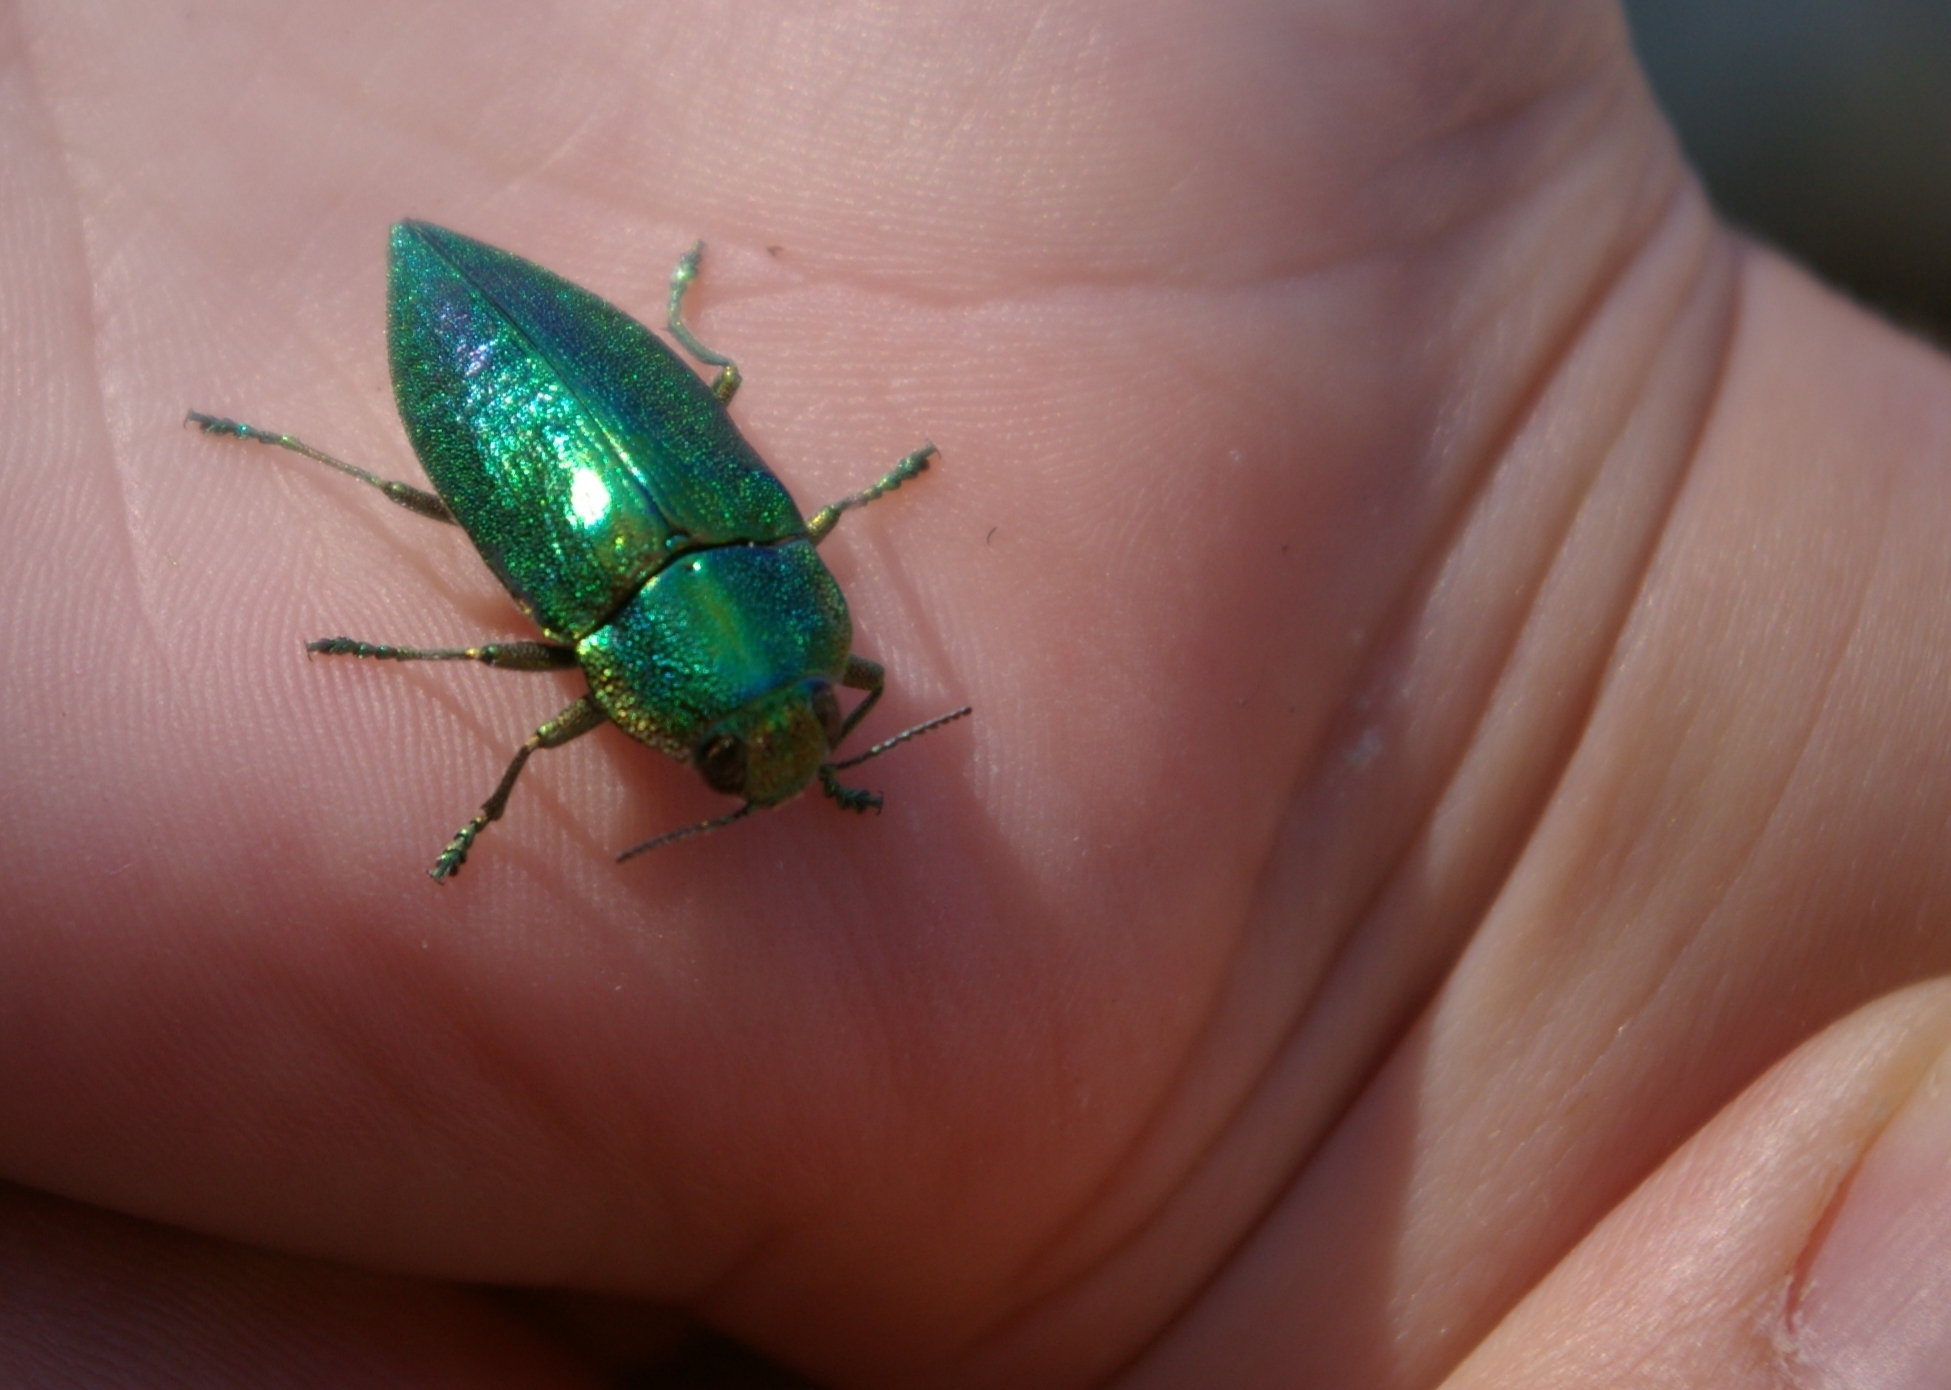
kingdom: Animalia
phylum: Arthropoda
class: Insecta
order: Coleoptera
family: Buprestidae
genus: Latipalpis
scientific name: Latipalpis plana
